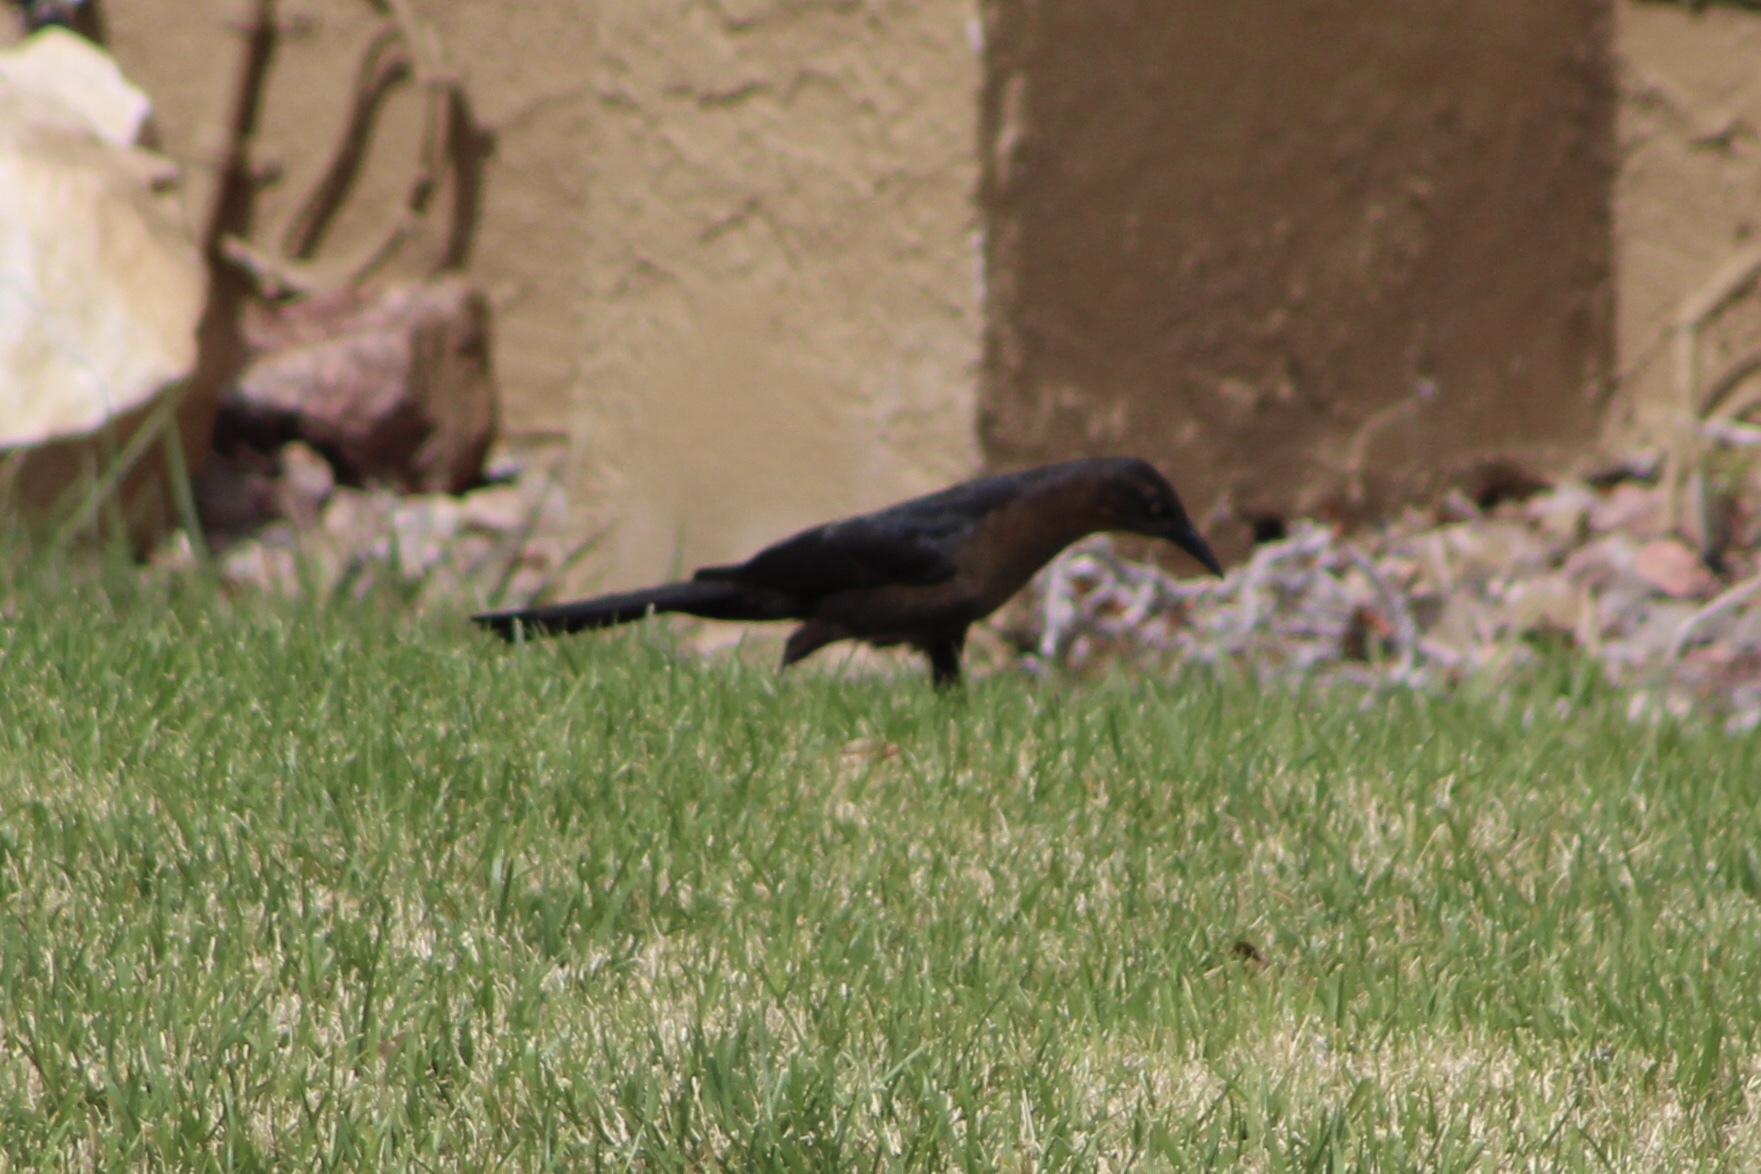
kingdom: Animalia
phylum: Chordata
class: Aves
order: Passeriformes
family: Icteridae
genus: Quiscalus
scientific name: Quiscalus mexicanus
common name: Great-tailed grackle
